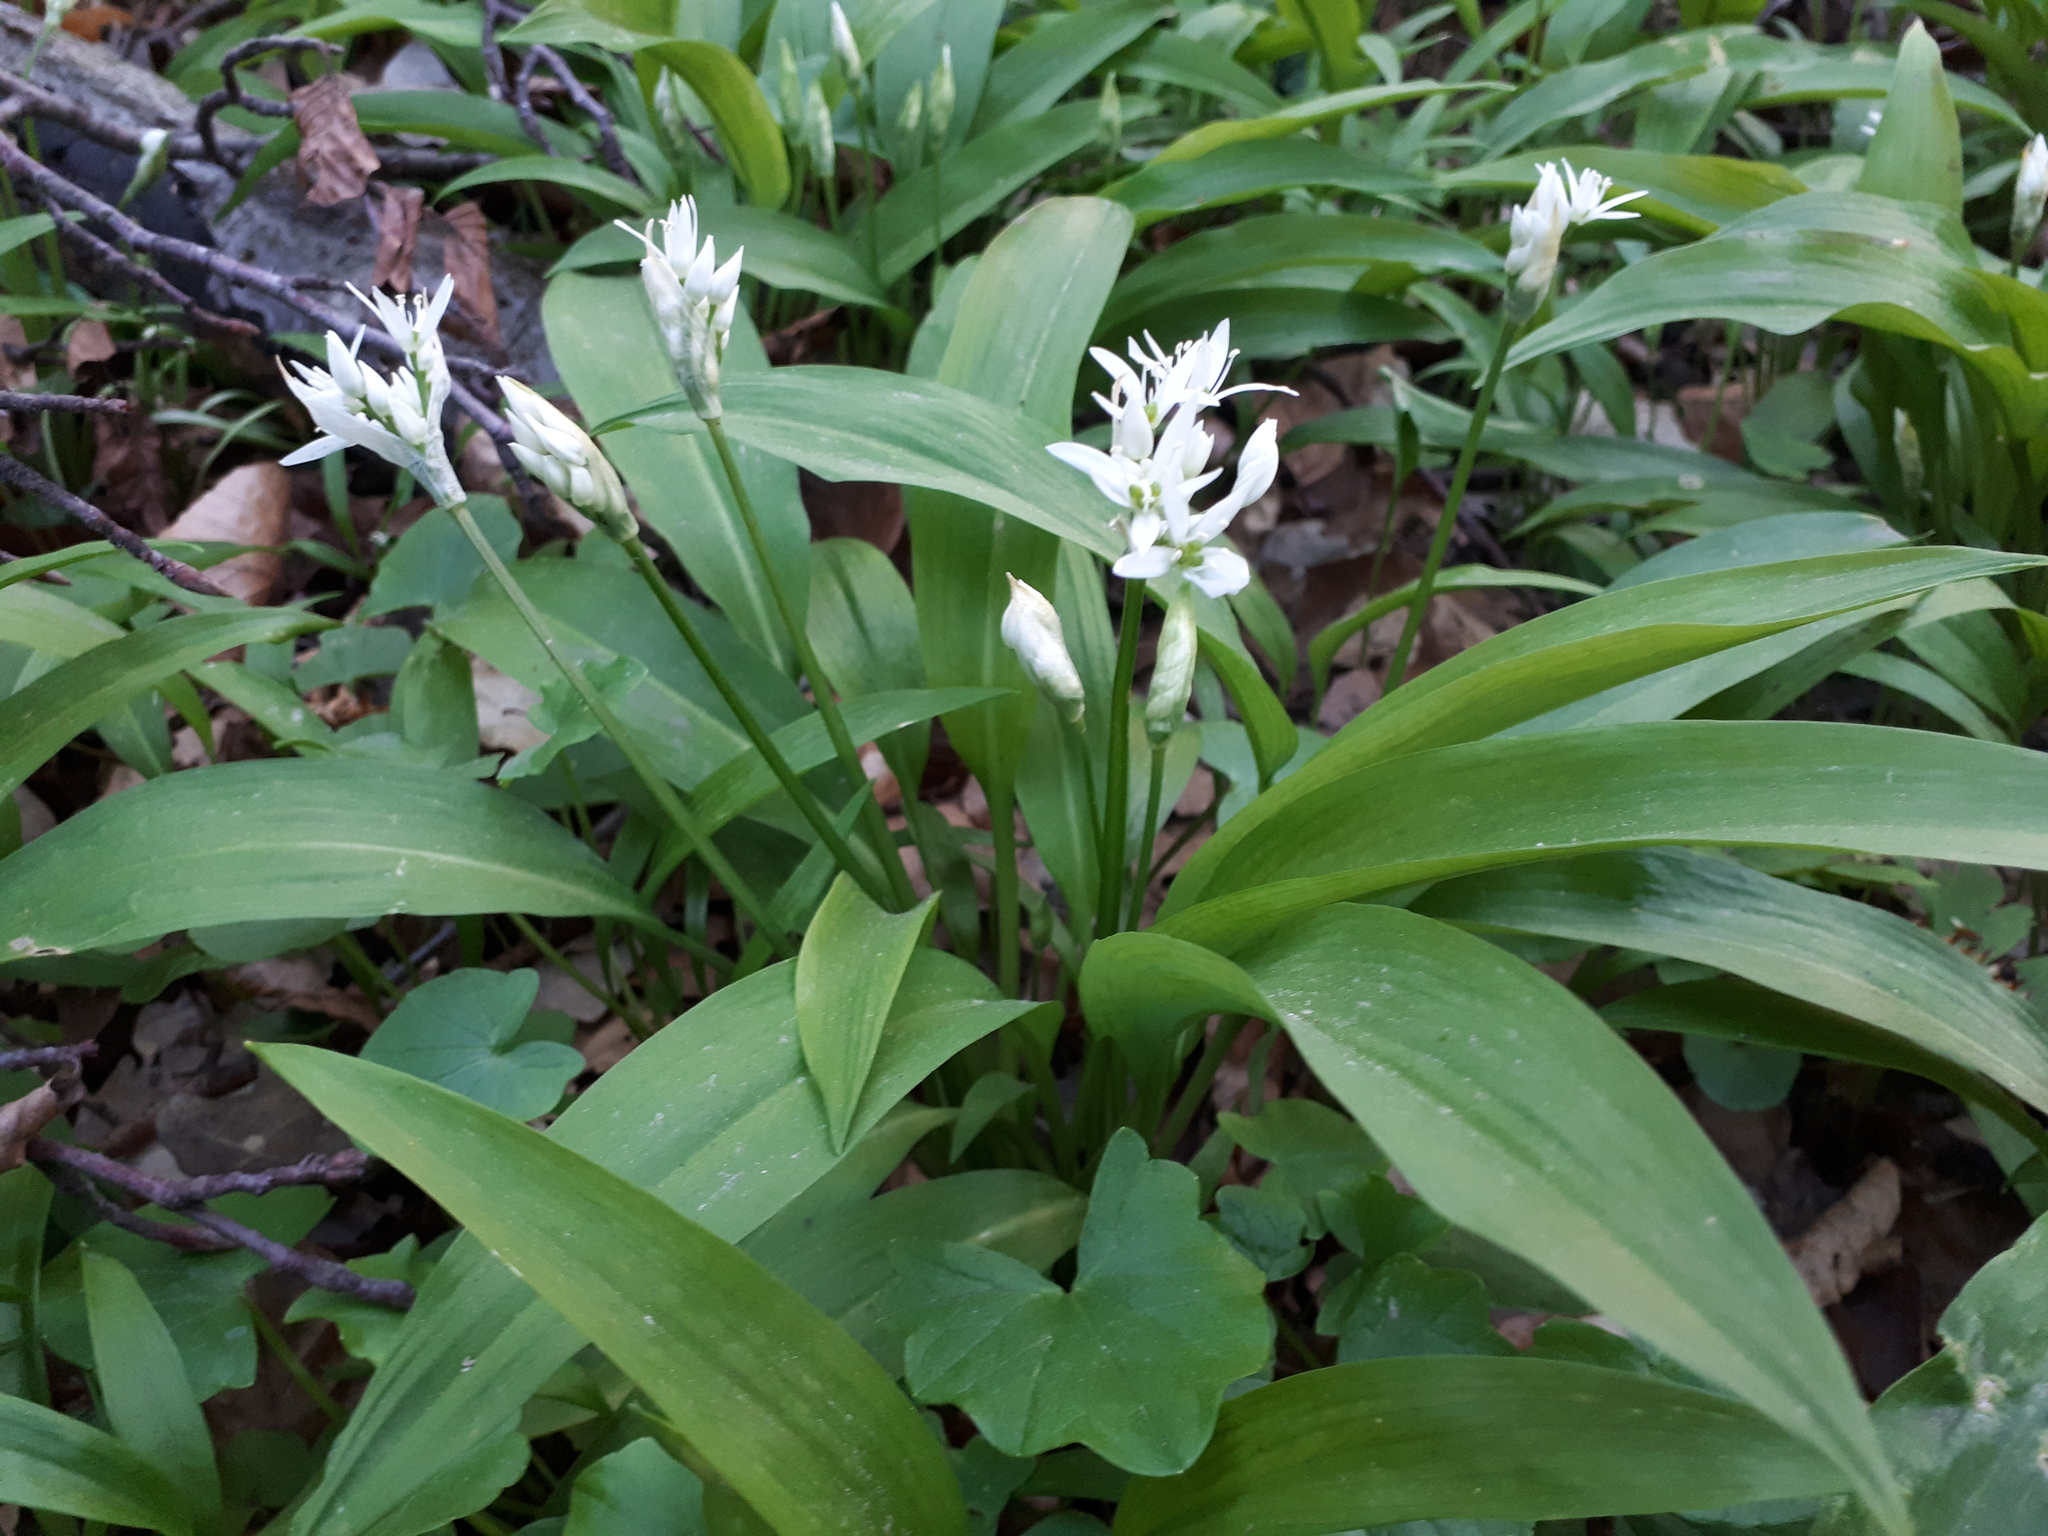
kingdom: Plantae
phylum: Tracheophyta
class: Liliopsida
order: Asparagales
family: Amaryllidaceae
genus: Allium
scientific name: Allium ursinum
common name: Ramsons
